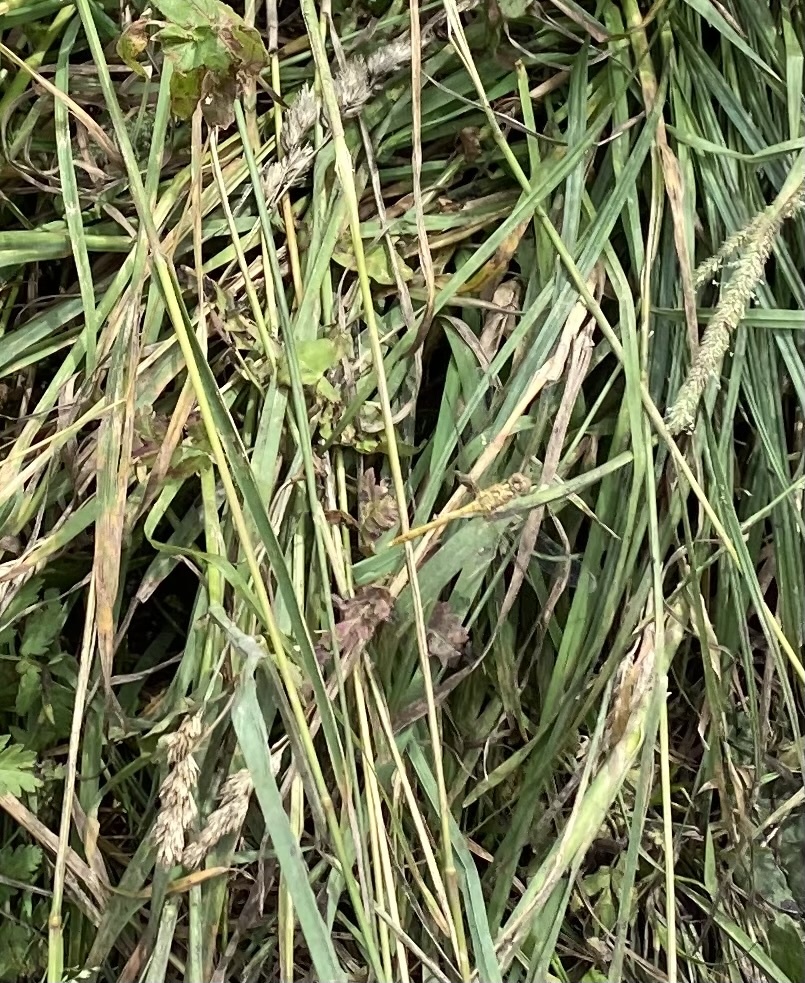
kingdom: Animalia
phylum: Arthropoda
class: Insecta
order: Odonata
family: Libellulidae
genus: Sympetrum
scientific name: Sympetrum
